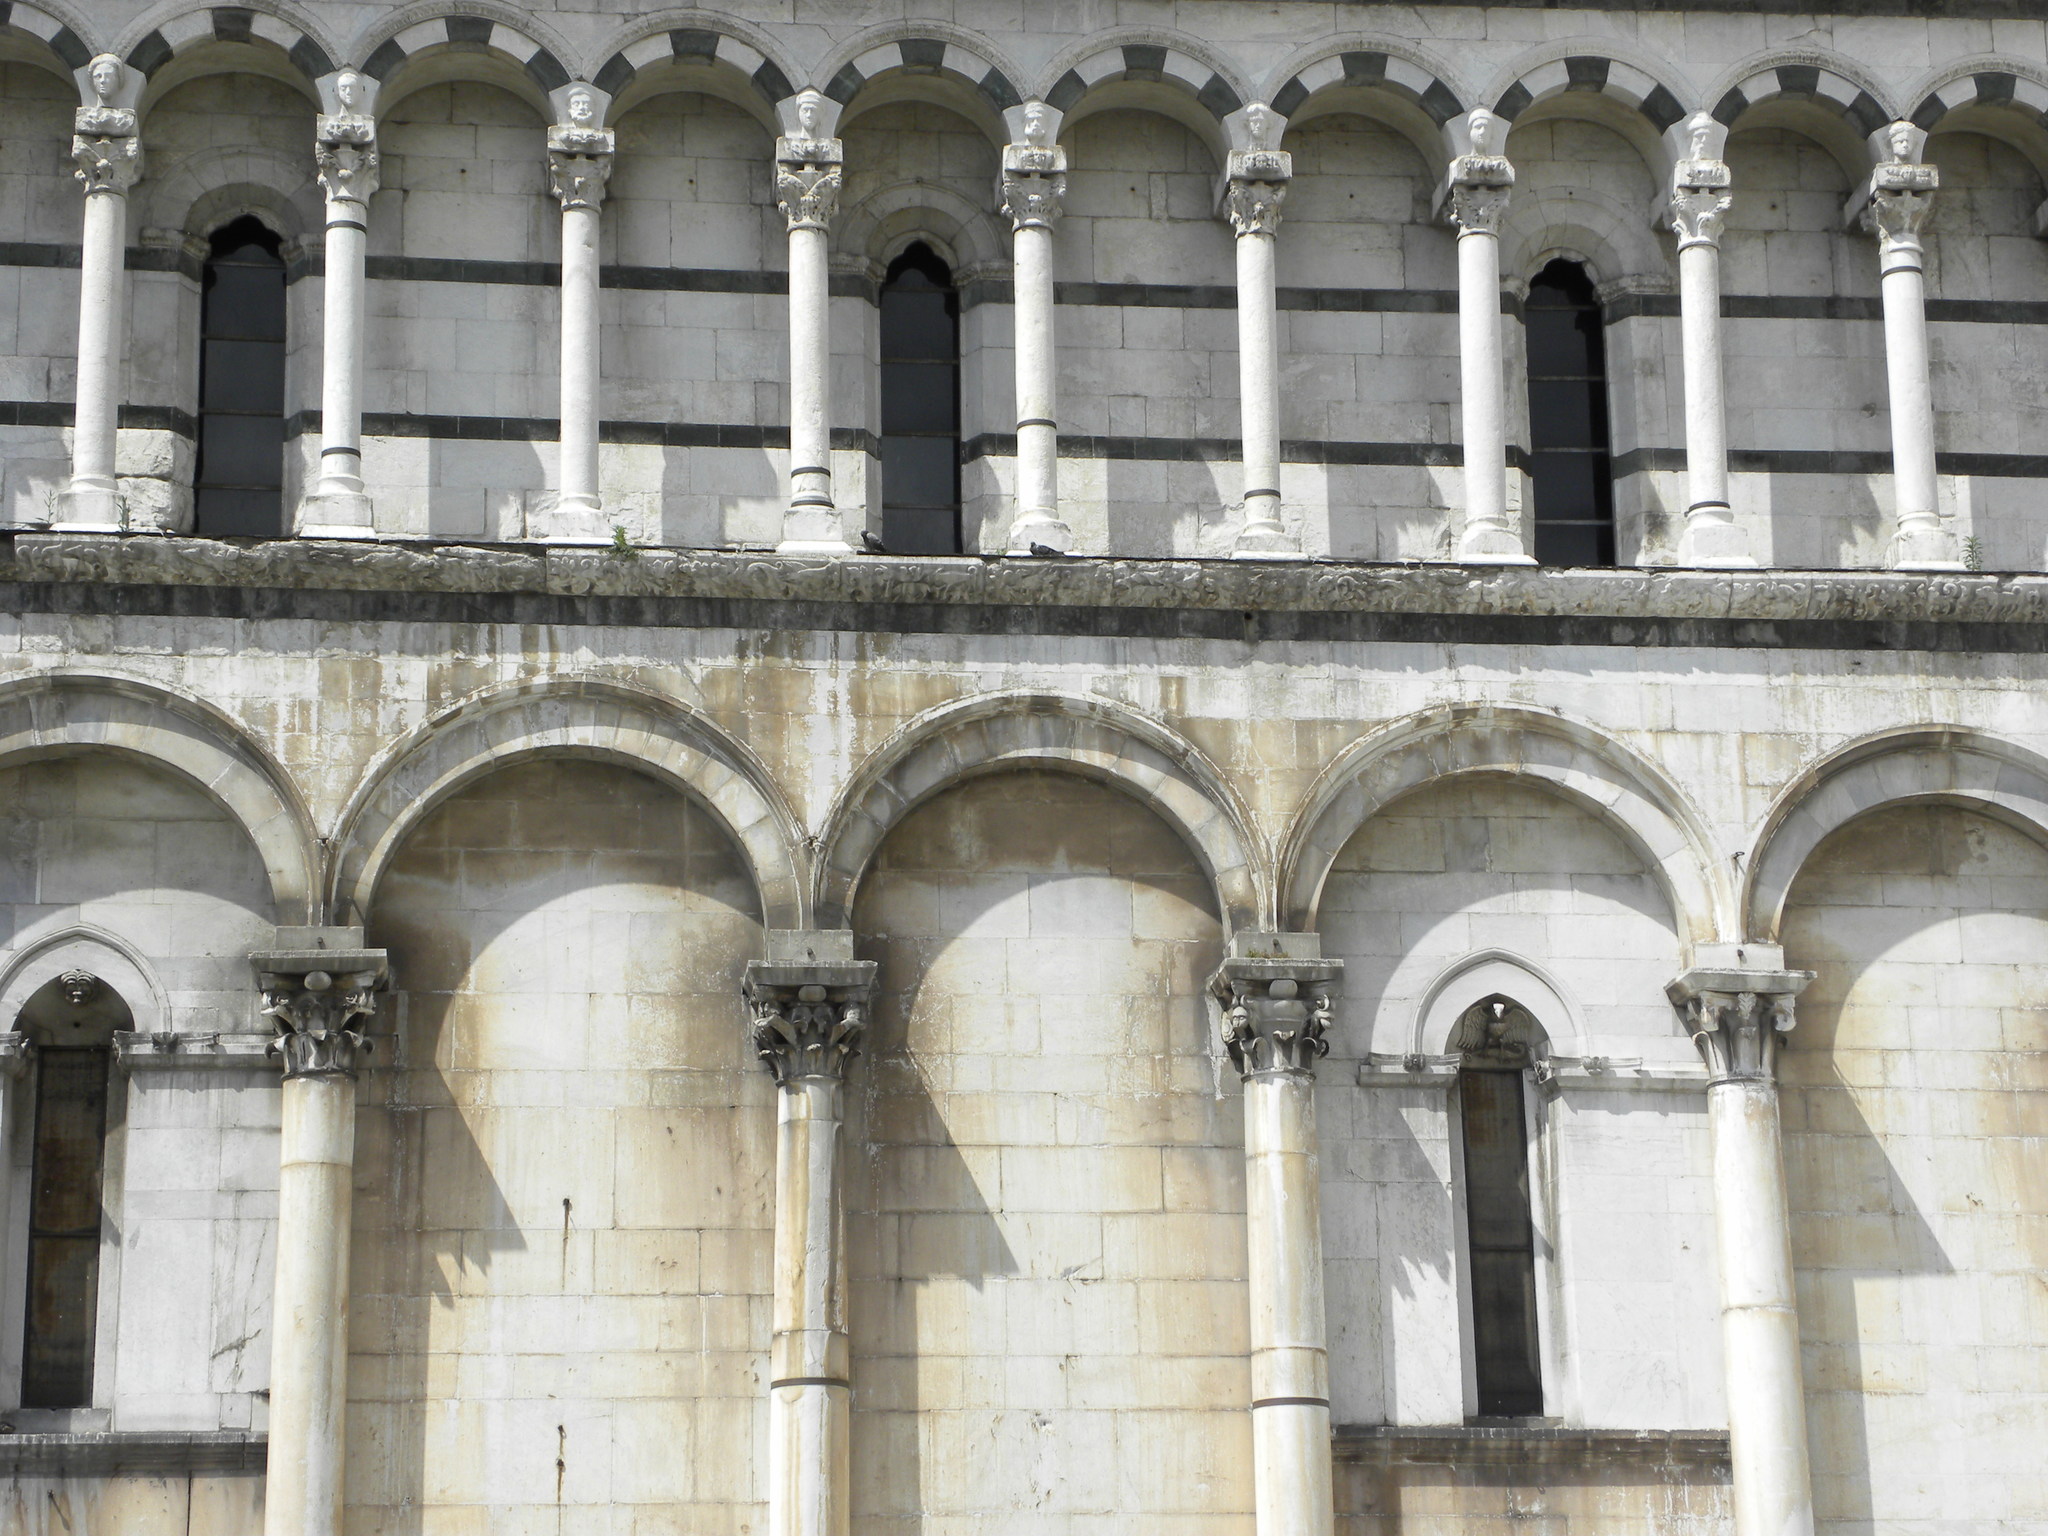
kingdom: Animalia
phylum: Chordata
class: Aves
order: Columbiformes
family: Columbidae
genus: Columba
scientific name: Columba livia
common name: Rock pigeon
